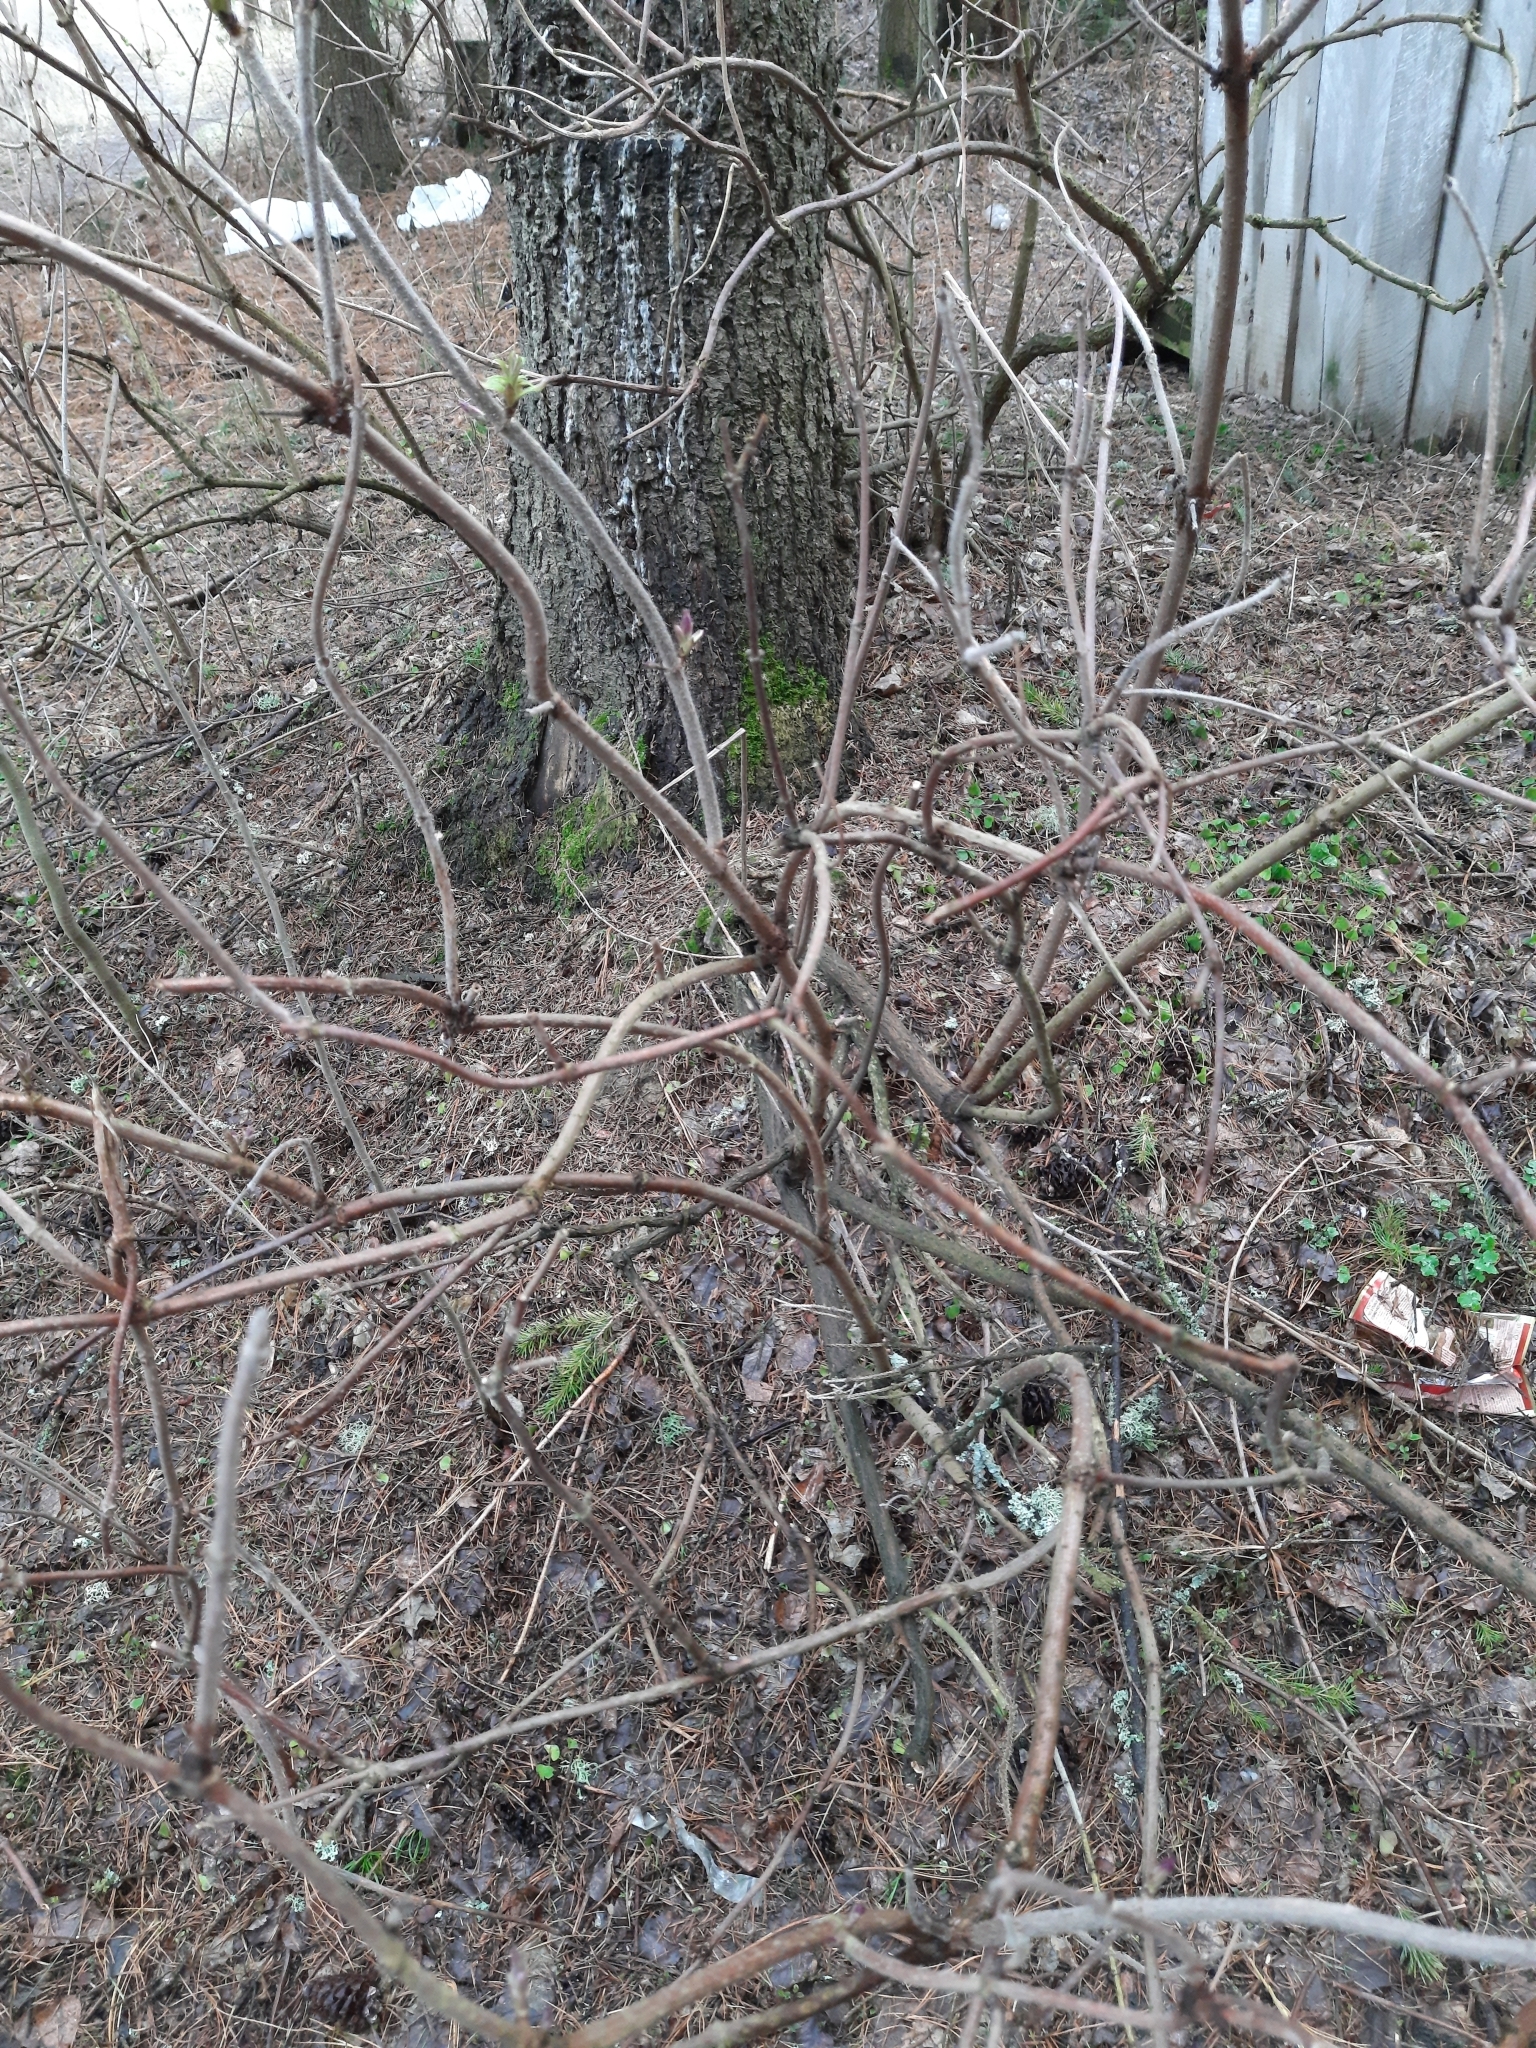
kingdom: Plantae
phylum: Tracheophyta
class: Magnoliopsida
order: Dipsacales
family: Viburnaceae
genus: Sambucus
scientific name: Sambucus sibirica
